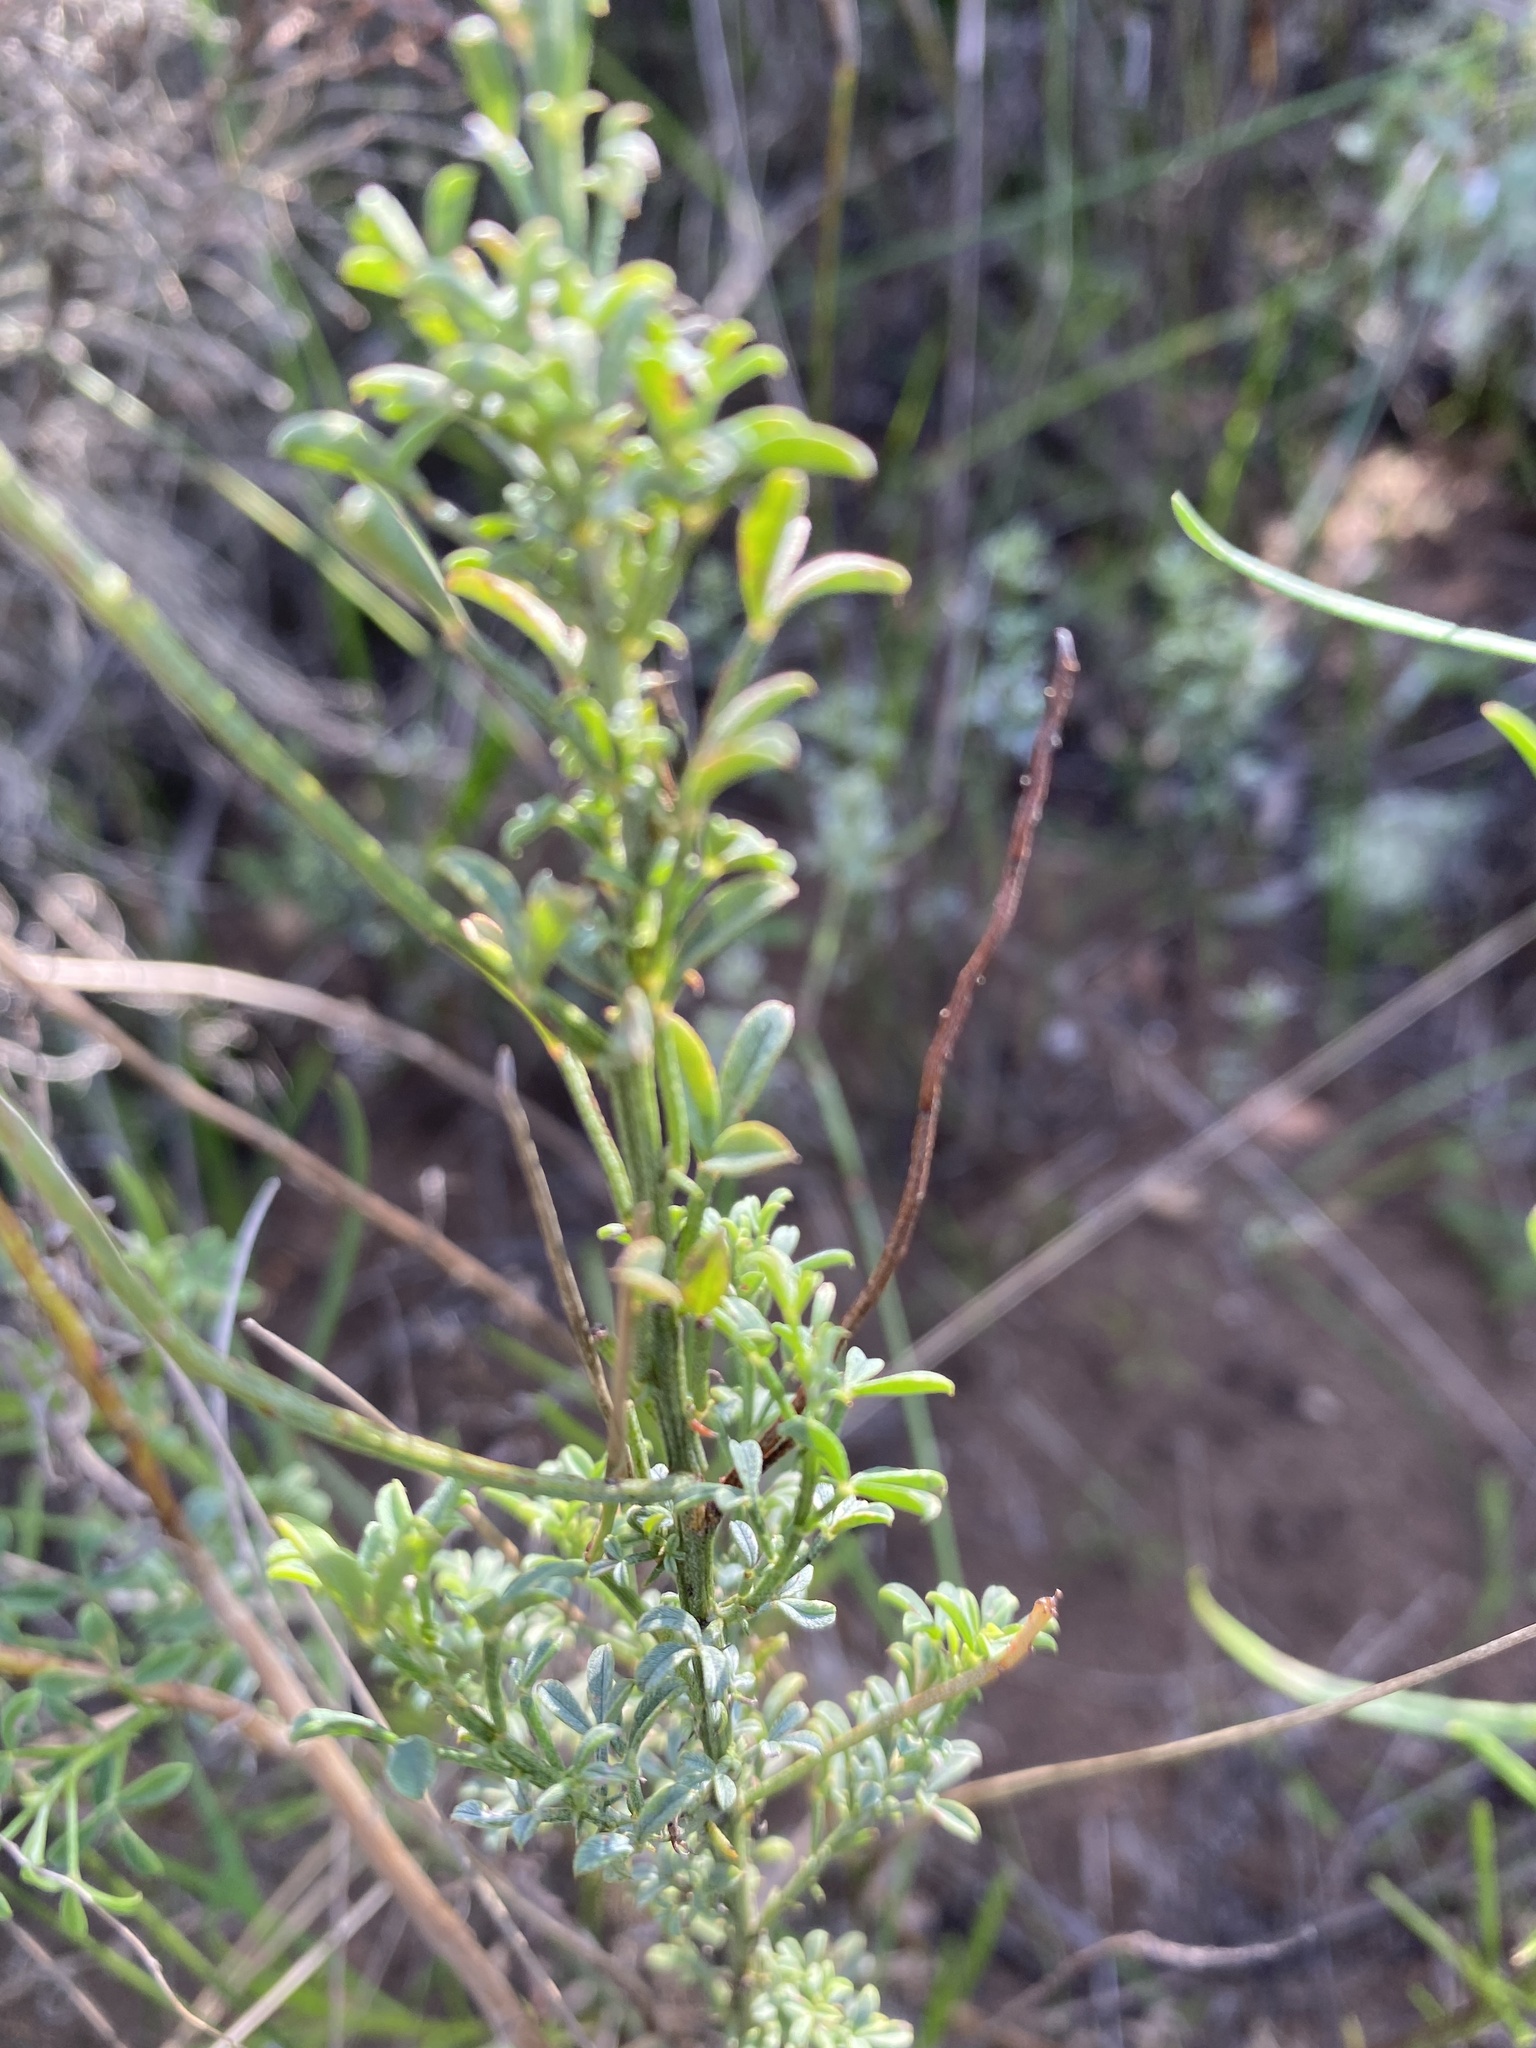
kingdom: Plantae
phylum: Tracheophyta
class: Magnoliopsida
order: Fabales
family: Fabaceae
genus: Indigofera
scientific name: Indigofera heterophylla
